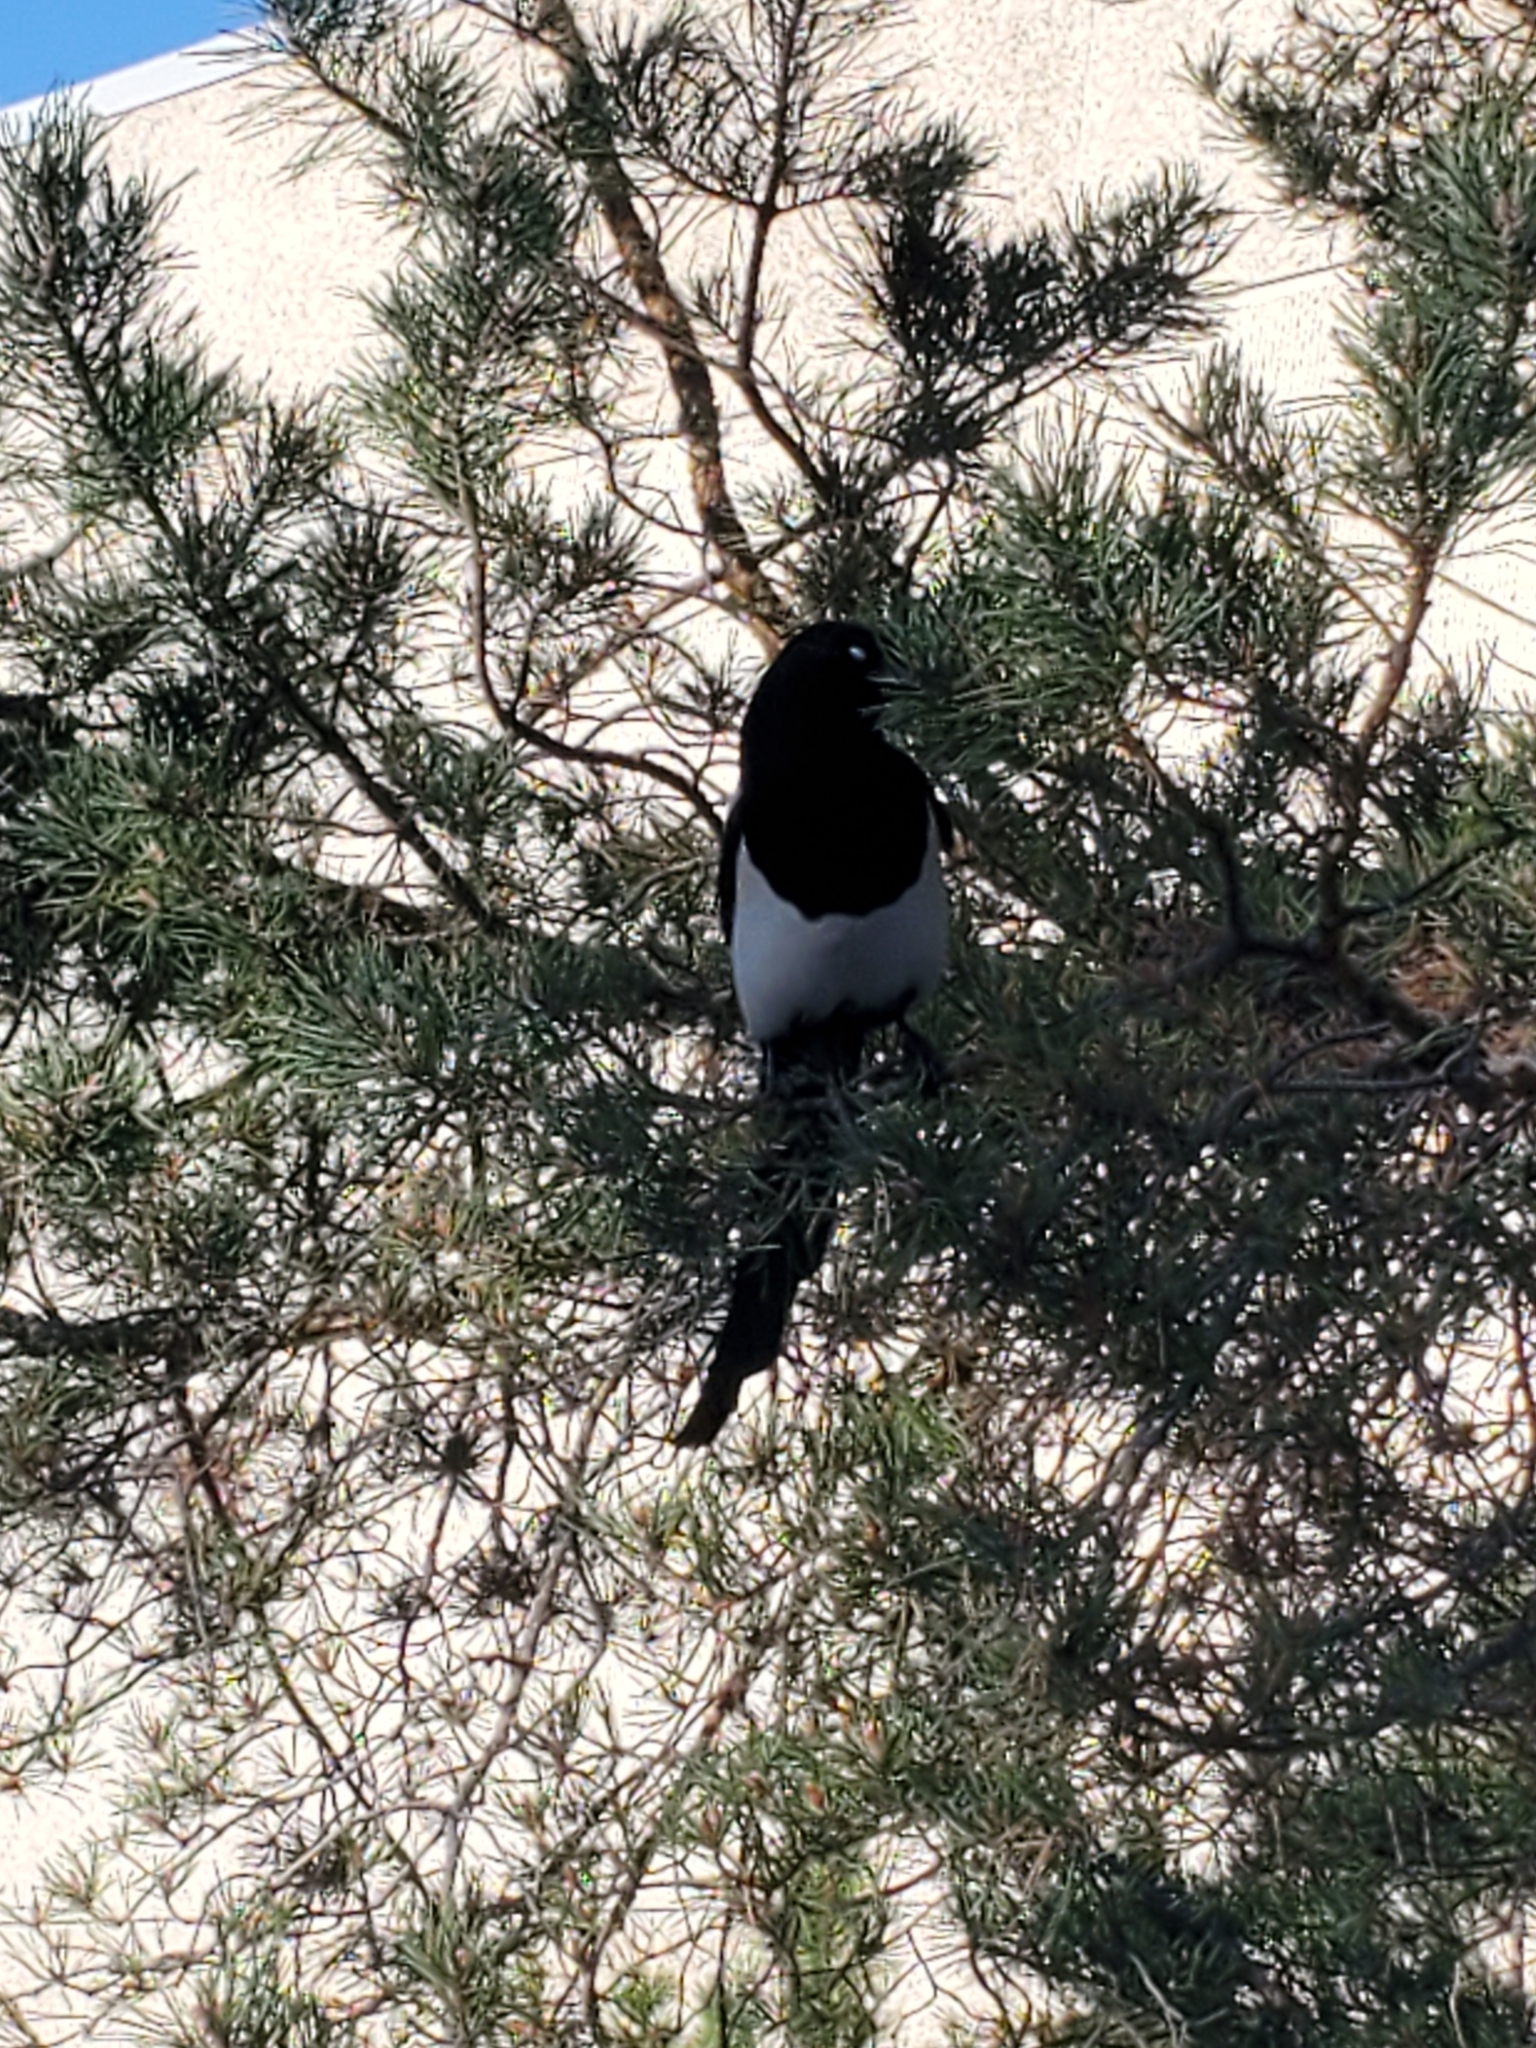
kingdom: Animalia
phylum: Chordata
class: Aves
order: Passeriformes
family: Corvidae
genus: Pica
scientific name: Pica hudsonia
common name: Black-billed magpie
